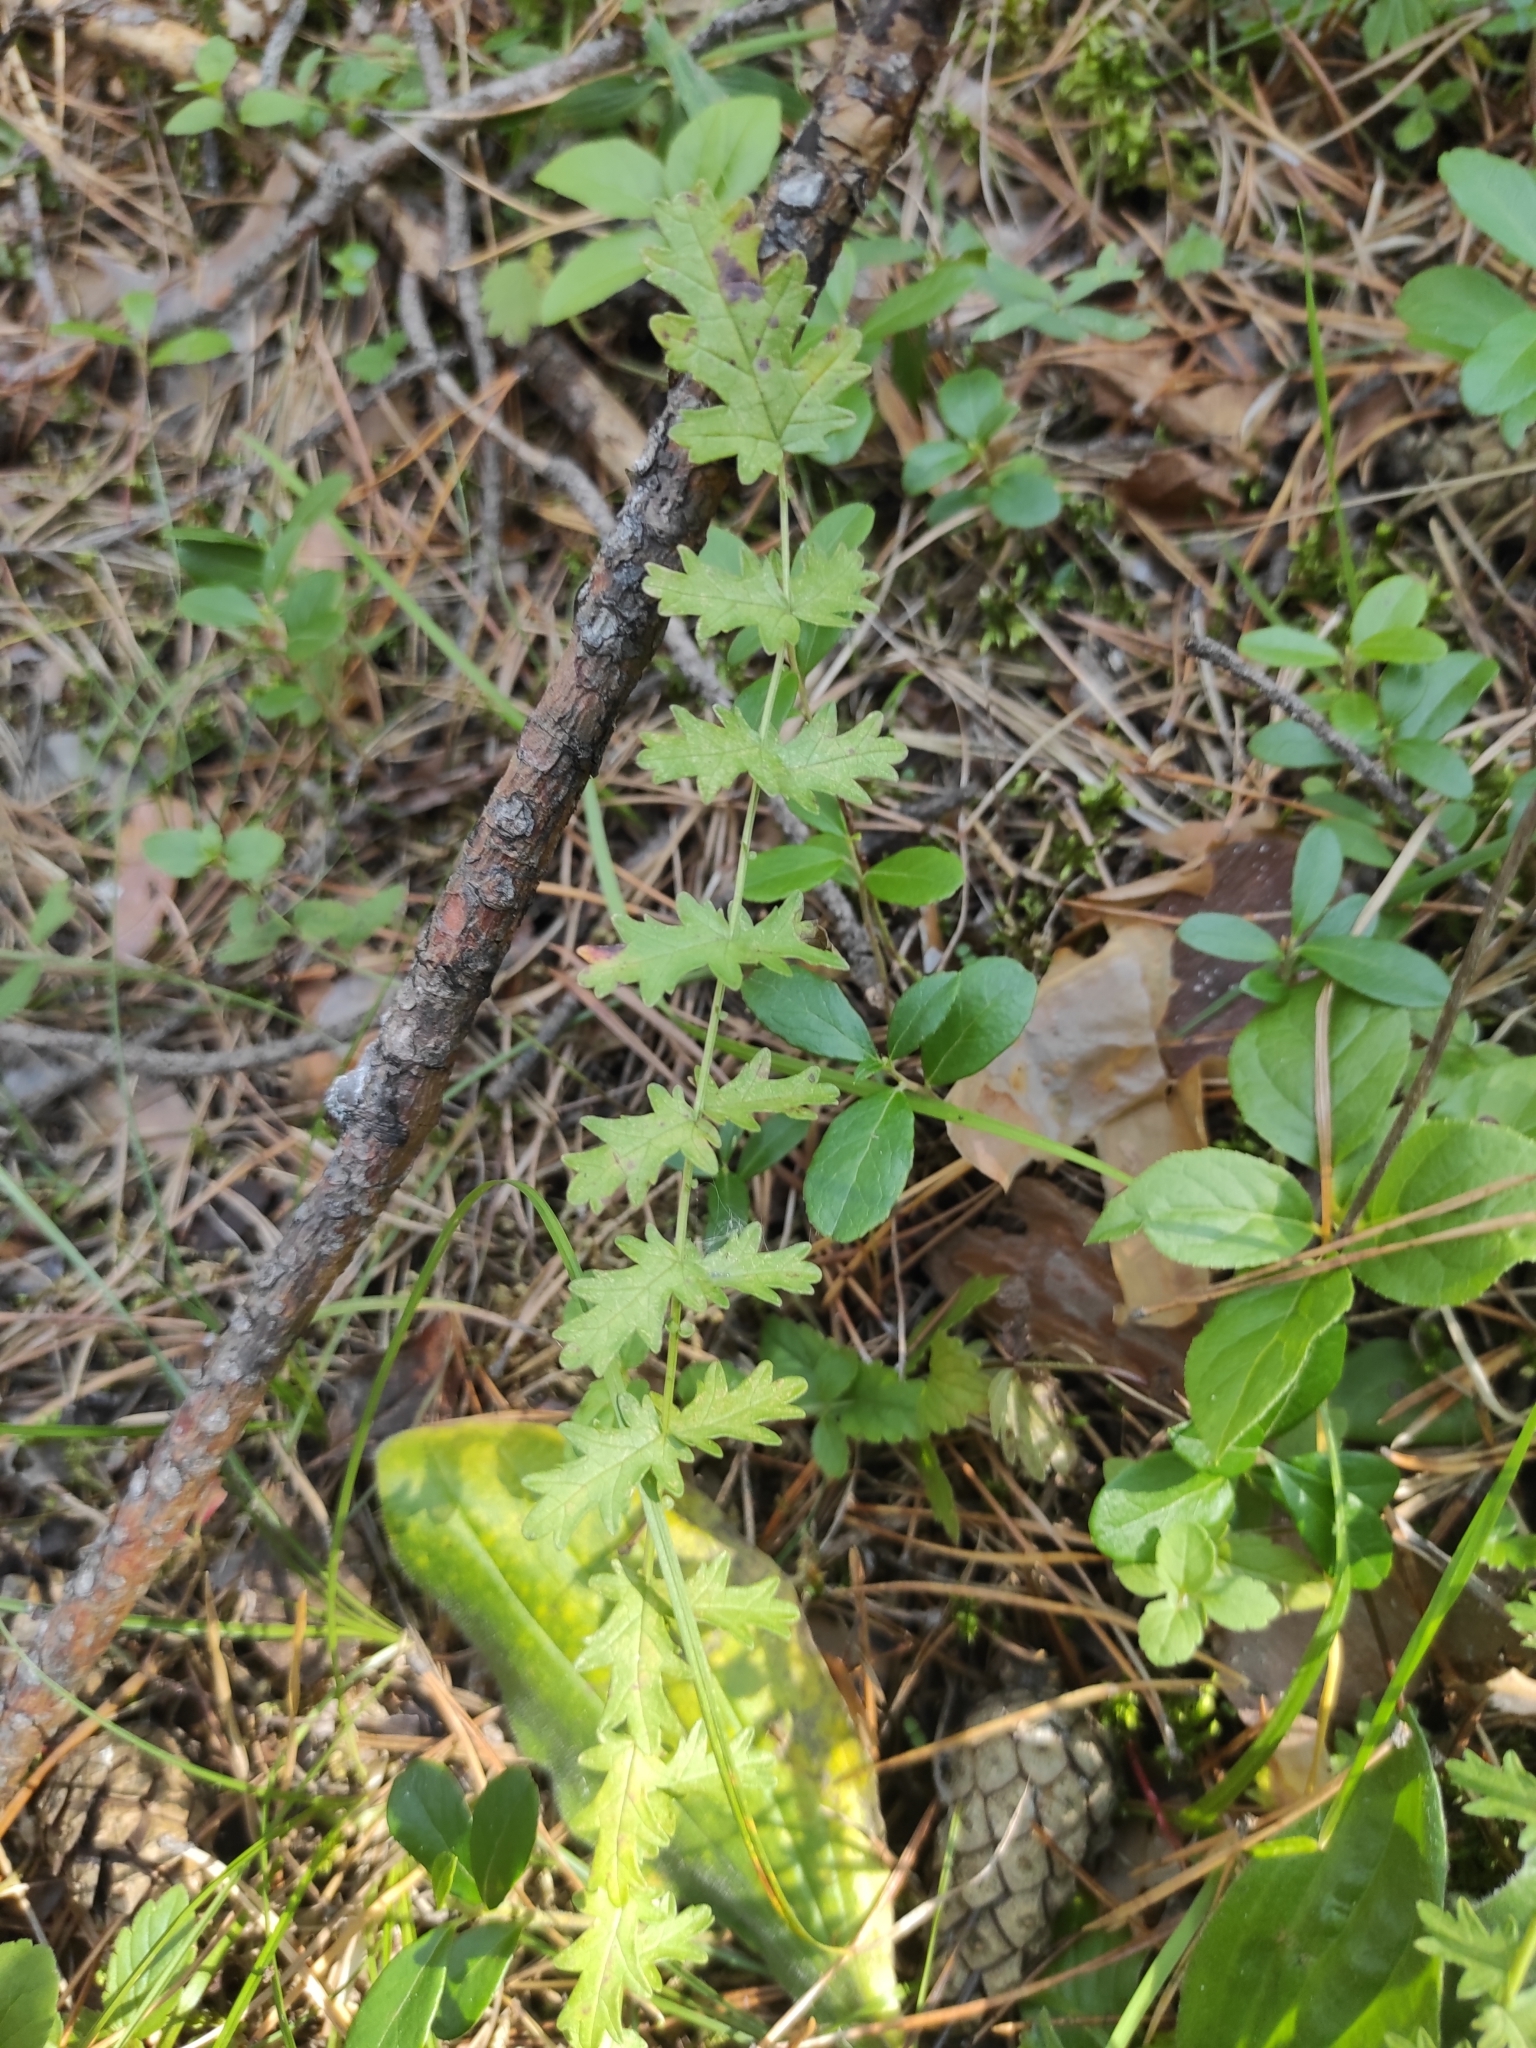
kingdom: Plantae
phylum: Tracheophyta
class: Magnoliopsida
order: Rosales
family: Rosaceae
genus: Filipendula
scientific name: Filipendula vulgaris
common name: Dropwort
